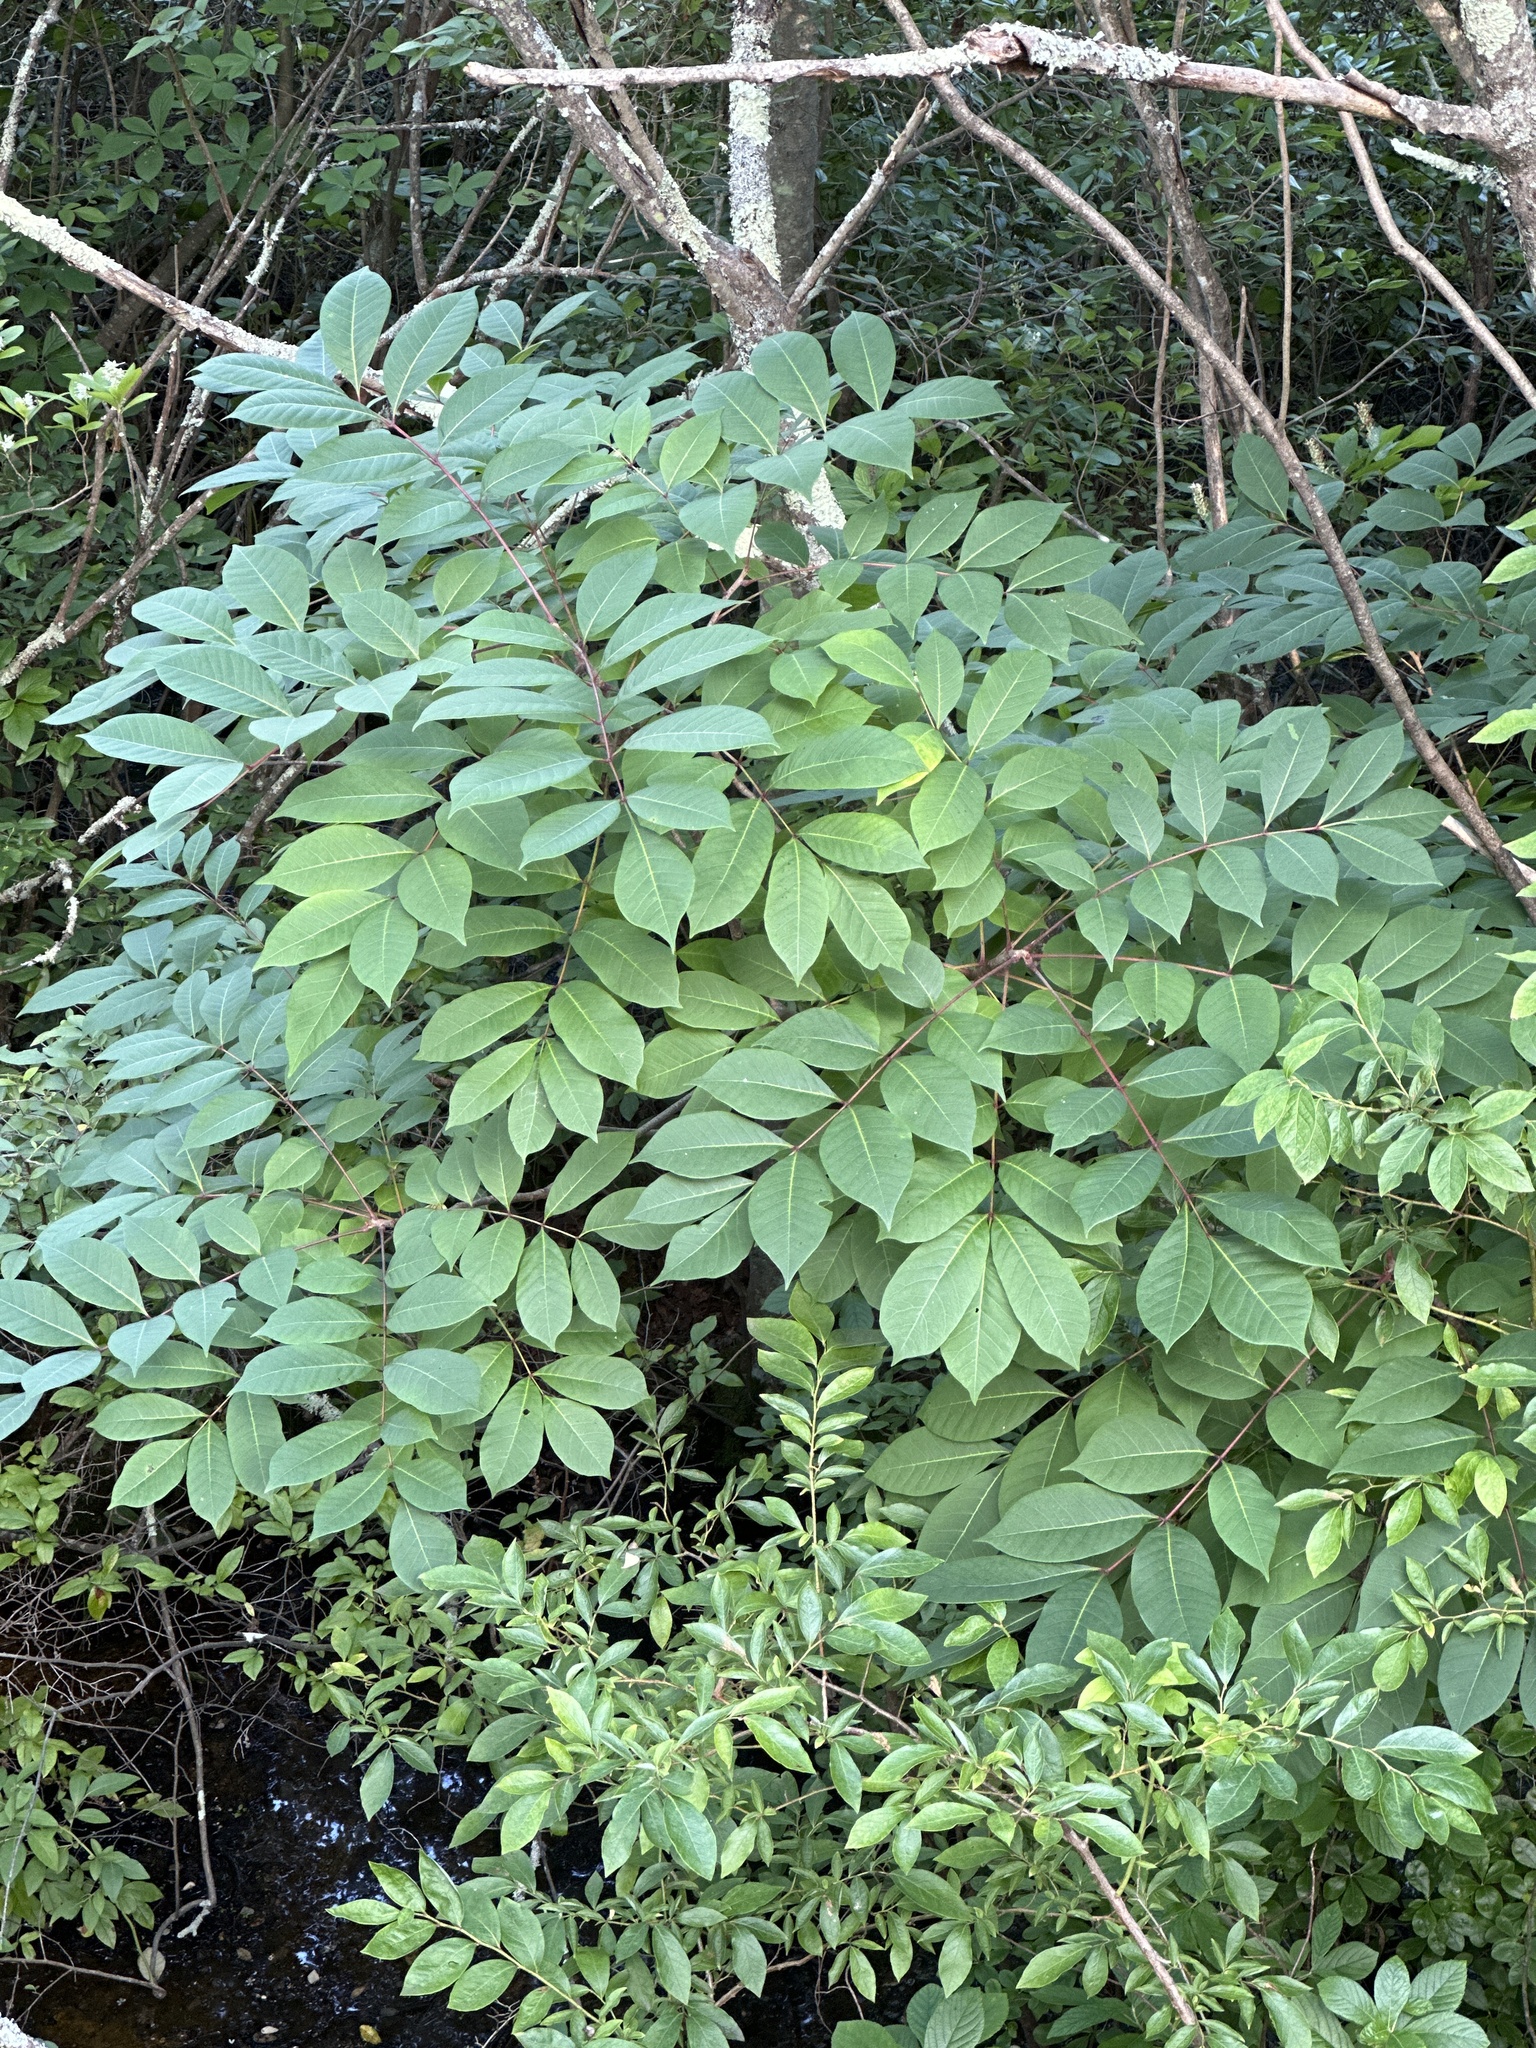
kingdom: Plantae
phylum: Tracheophyta
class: Magnoliopsida
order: Sapindales
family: Anacardiaceae
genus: Toxicodendron
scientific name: Toxicodendron vernix
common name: Poison sumac
